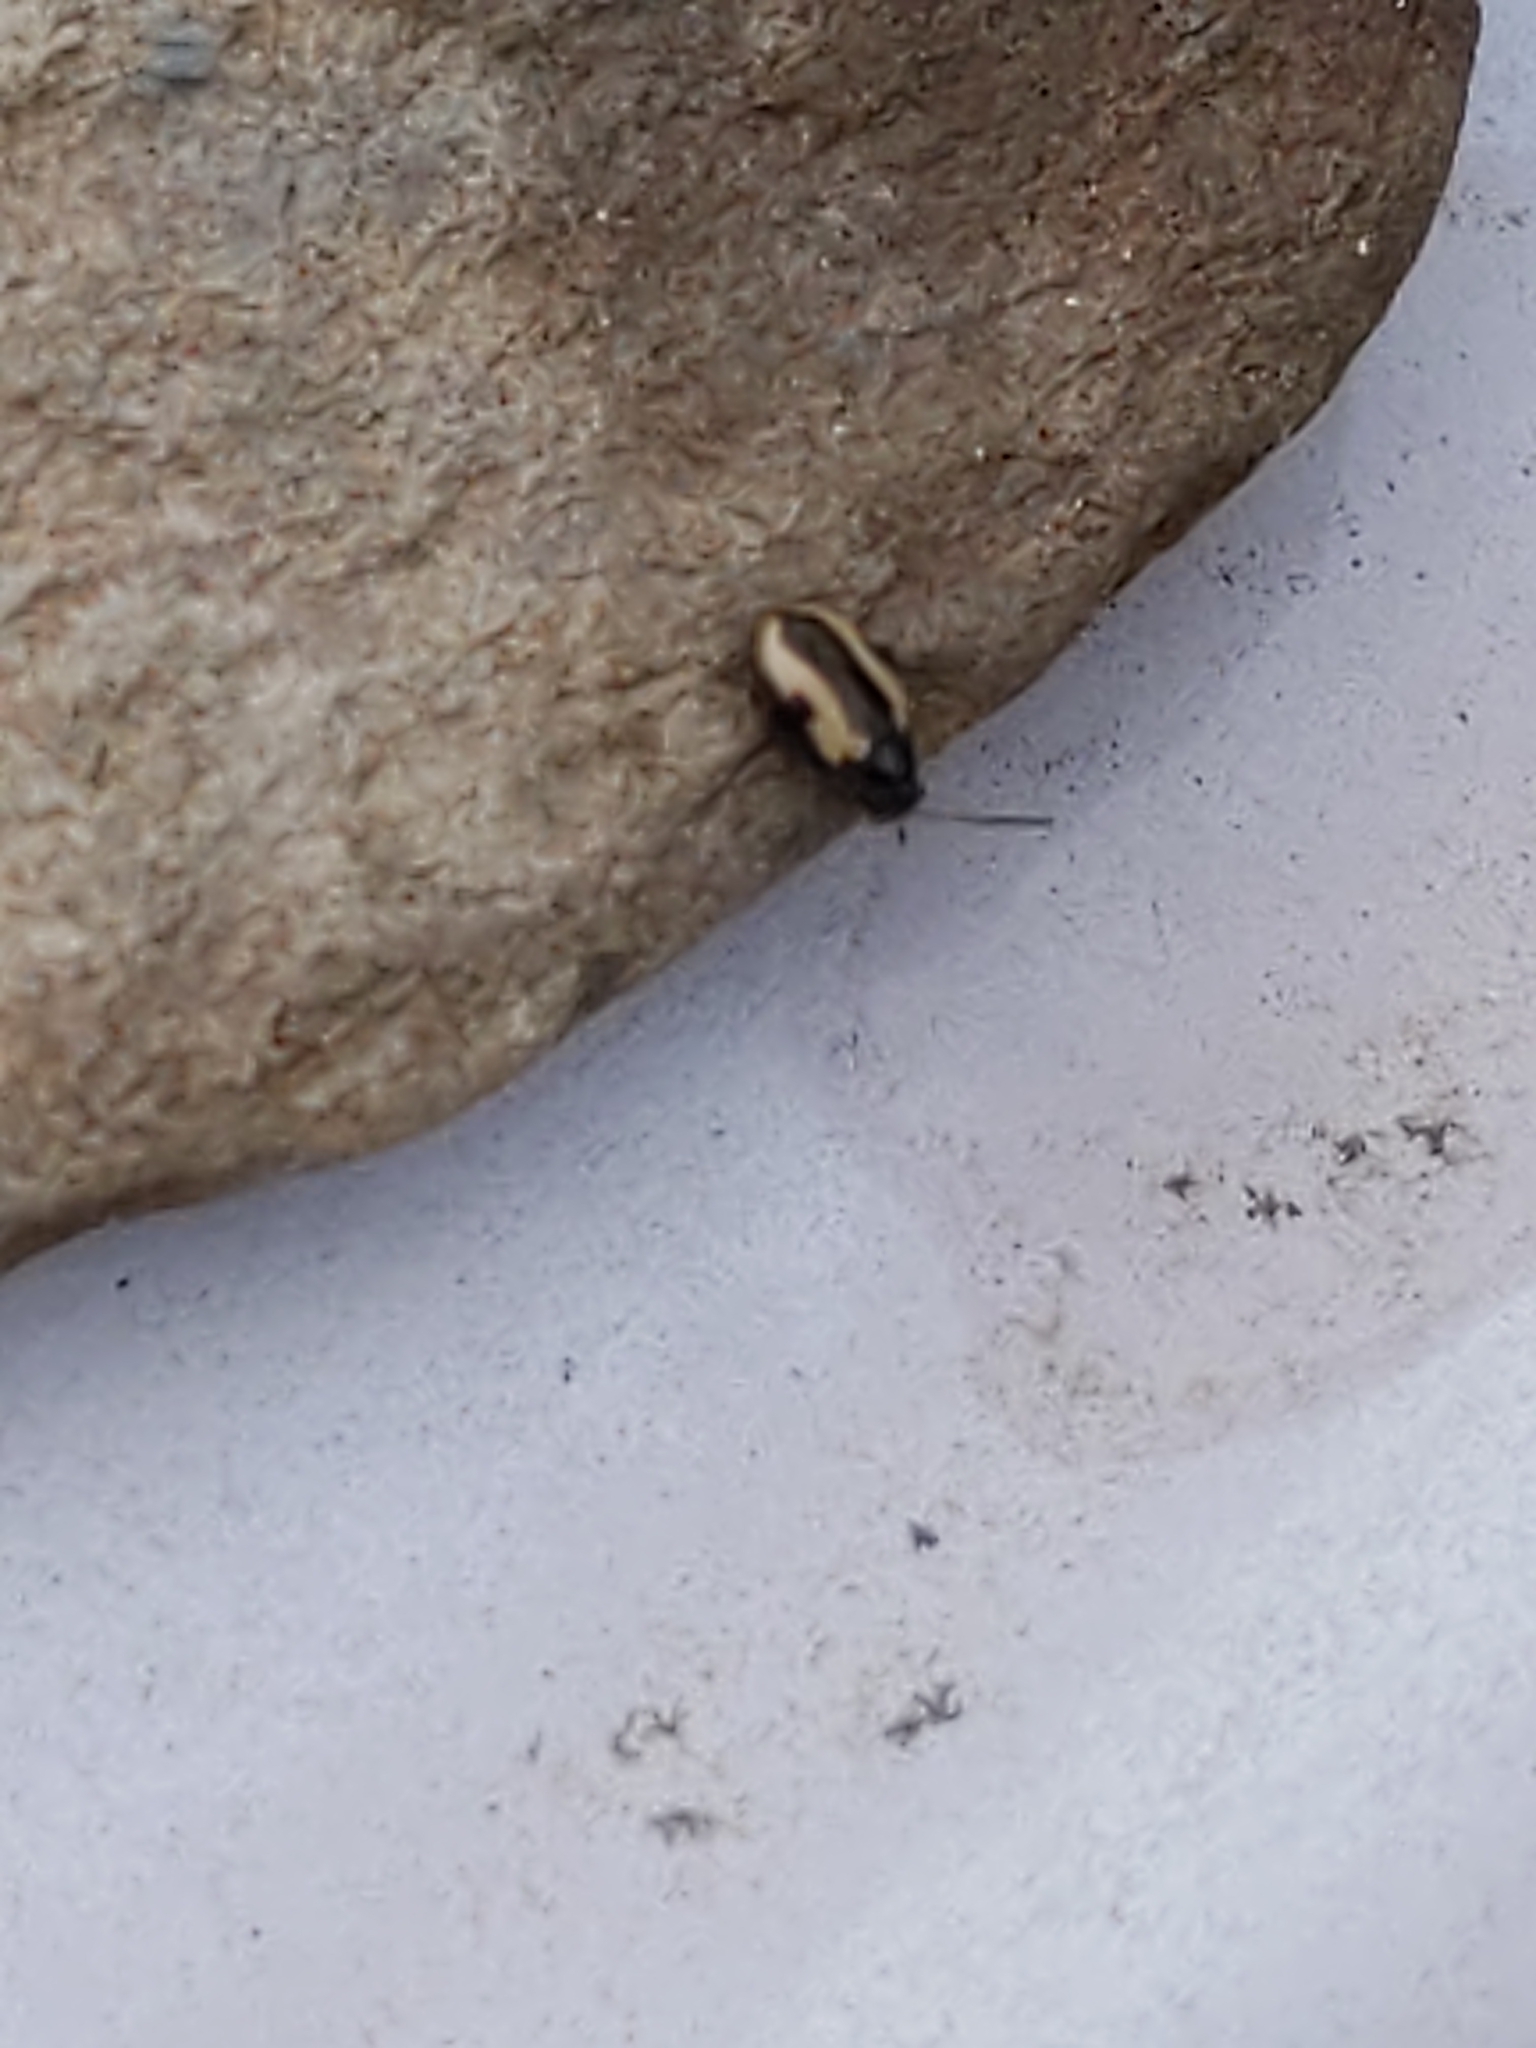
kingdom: Animalia
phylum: Arthropoda
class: Insecta
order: Coleoptera
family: Chrysomelidae
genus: Phyllotreta
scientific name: Phyllotreta
